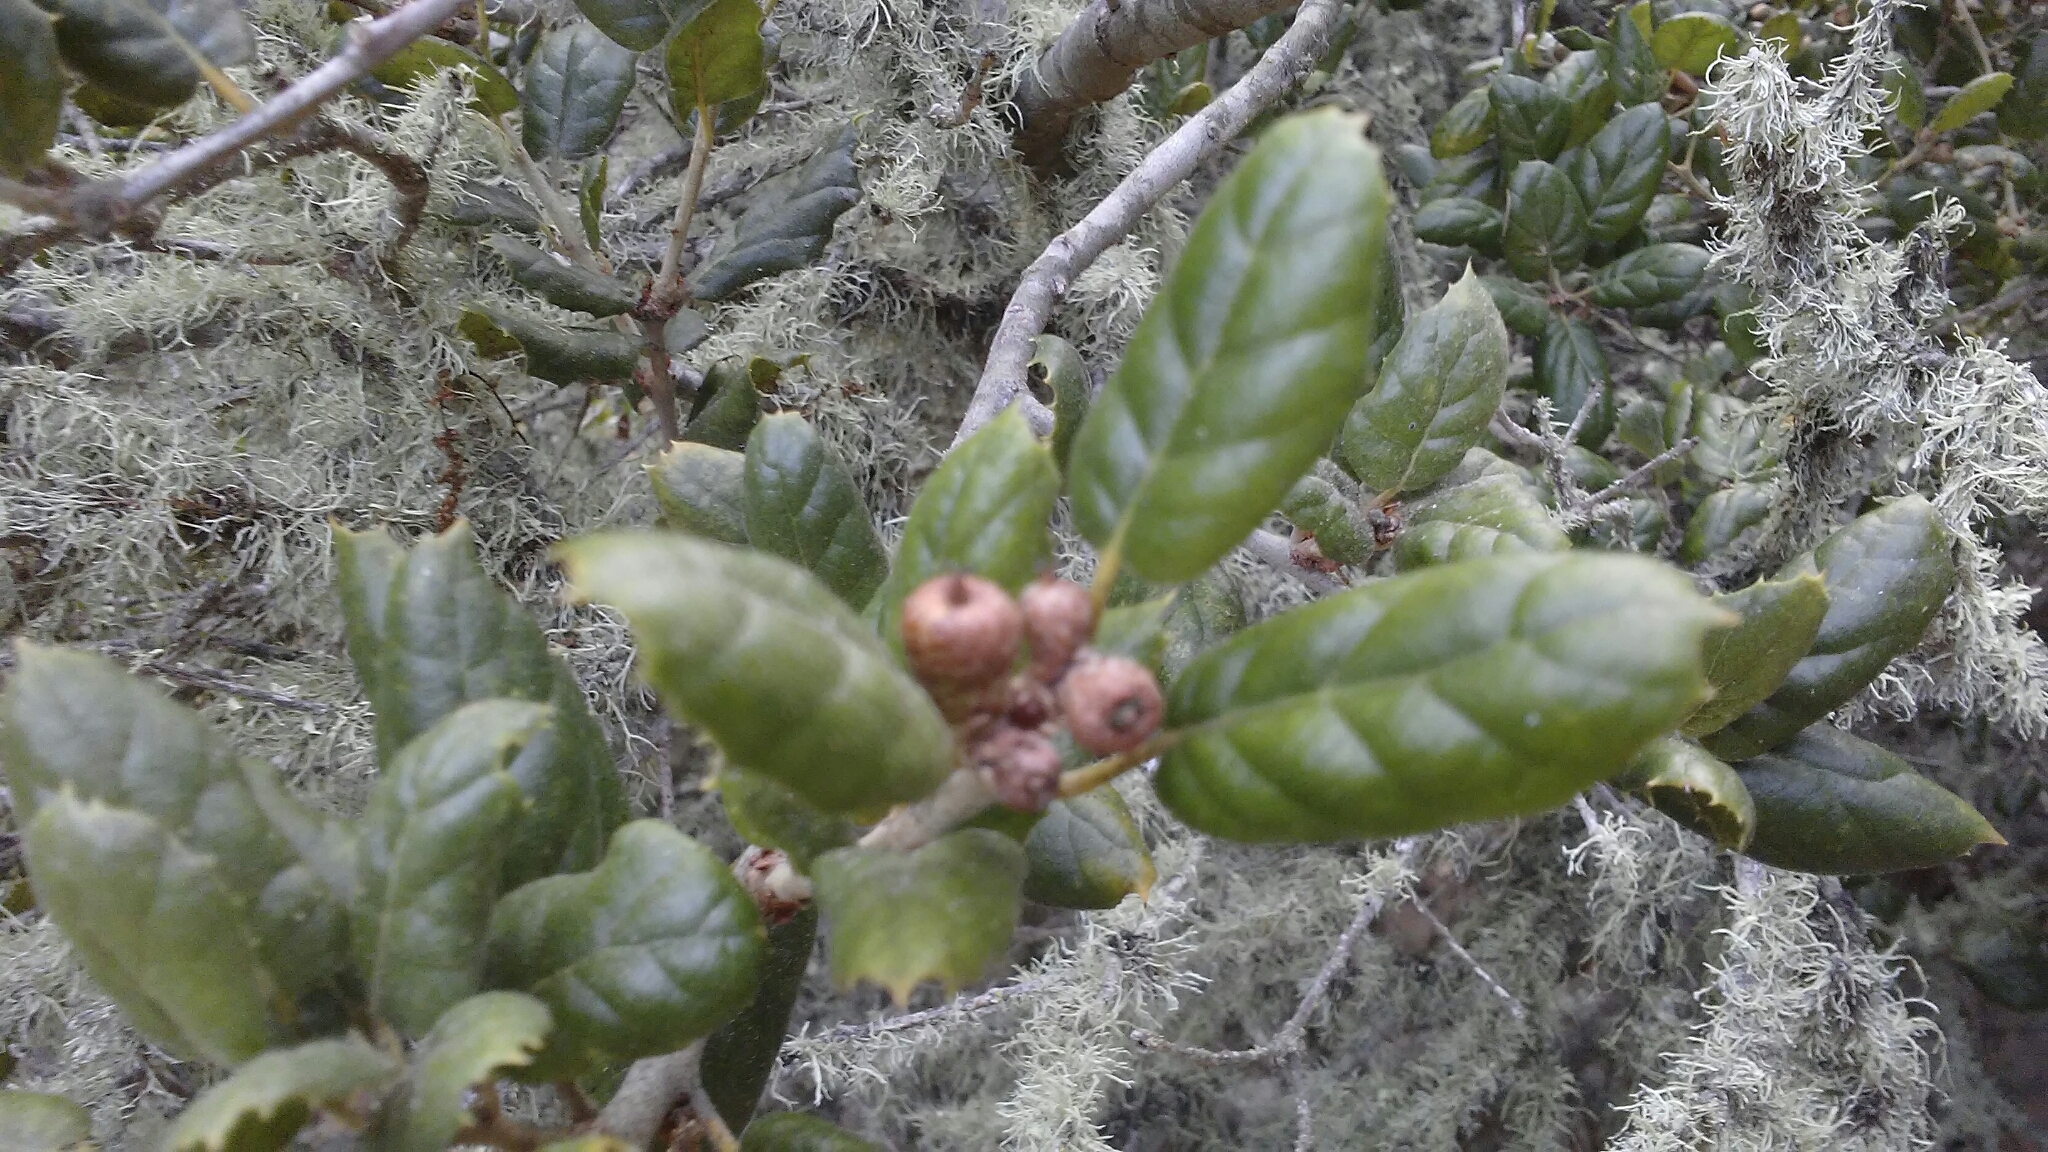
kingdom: Plantae
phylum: Tracheophyta
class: Magnoliopsida
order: Fagales
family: Fagaceae
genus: Quercus
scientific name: Quercus agrifolia
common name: California live oak
